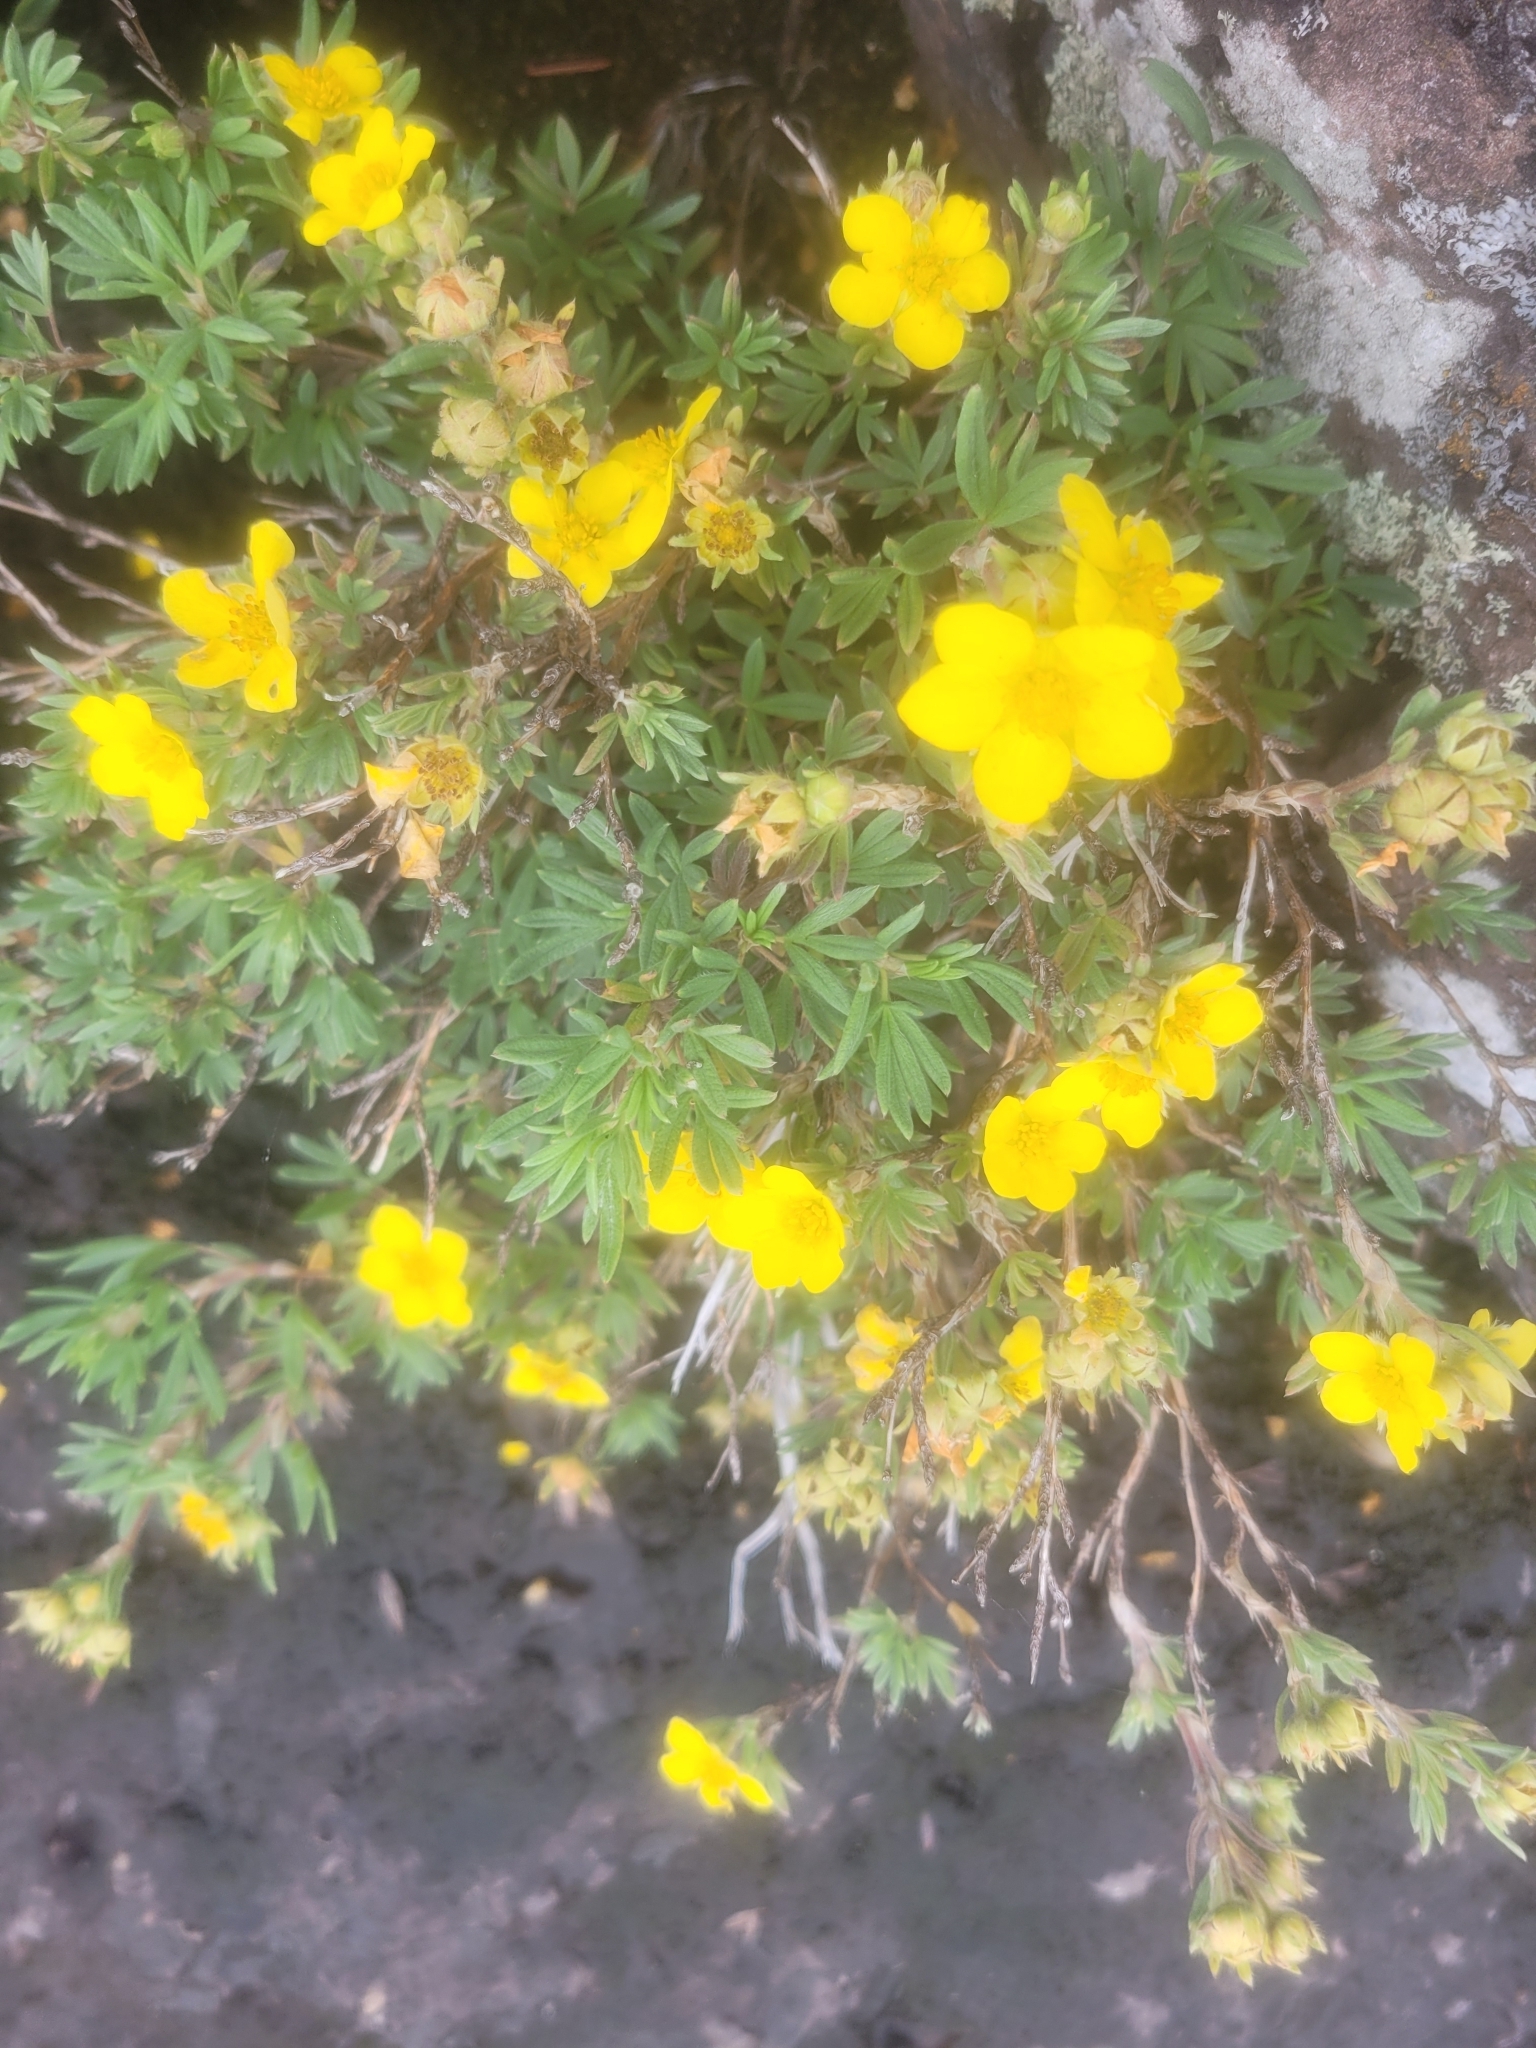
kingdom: Plantae
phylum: Tracheophyta
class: Magnoliopsida
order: Rosales
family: Rosaceae
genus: Dasiphora
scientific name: Dasiphora fruticosa
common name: Shrubby cinquefoil
